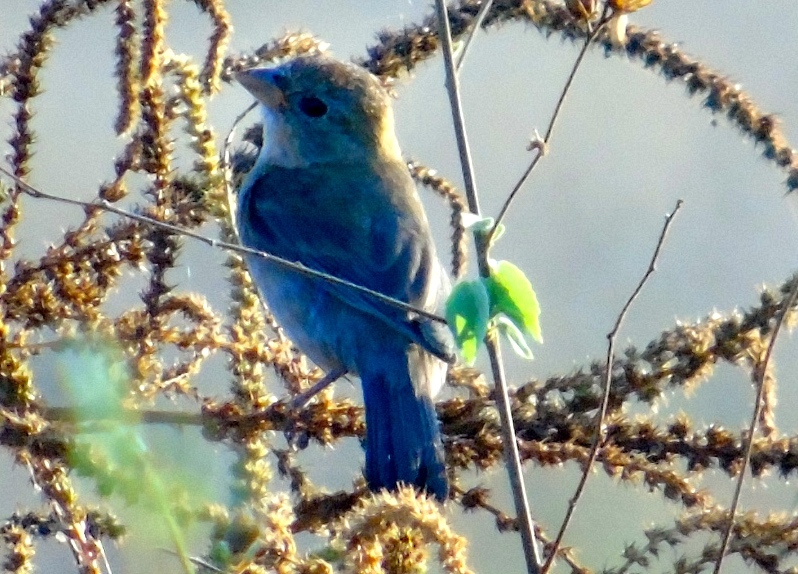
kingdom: Animalia
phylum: Chordata
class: Aves
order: Passeriformes
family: Cardinalidae
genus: Passerina
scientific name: Passerina
